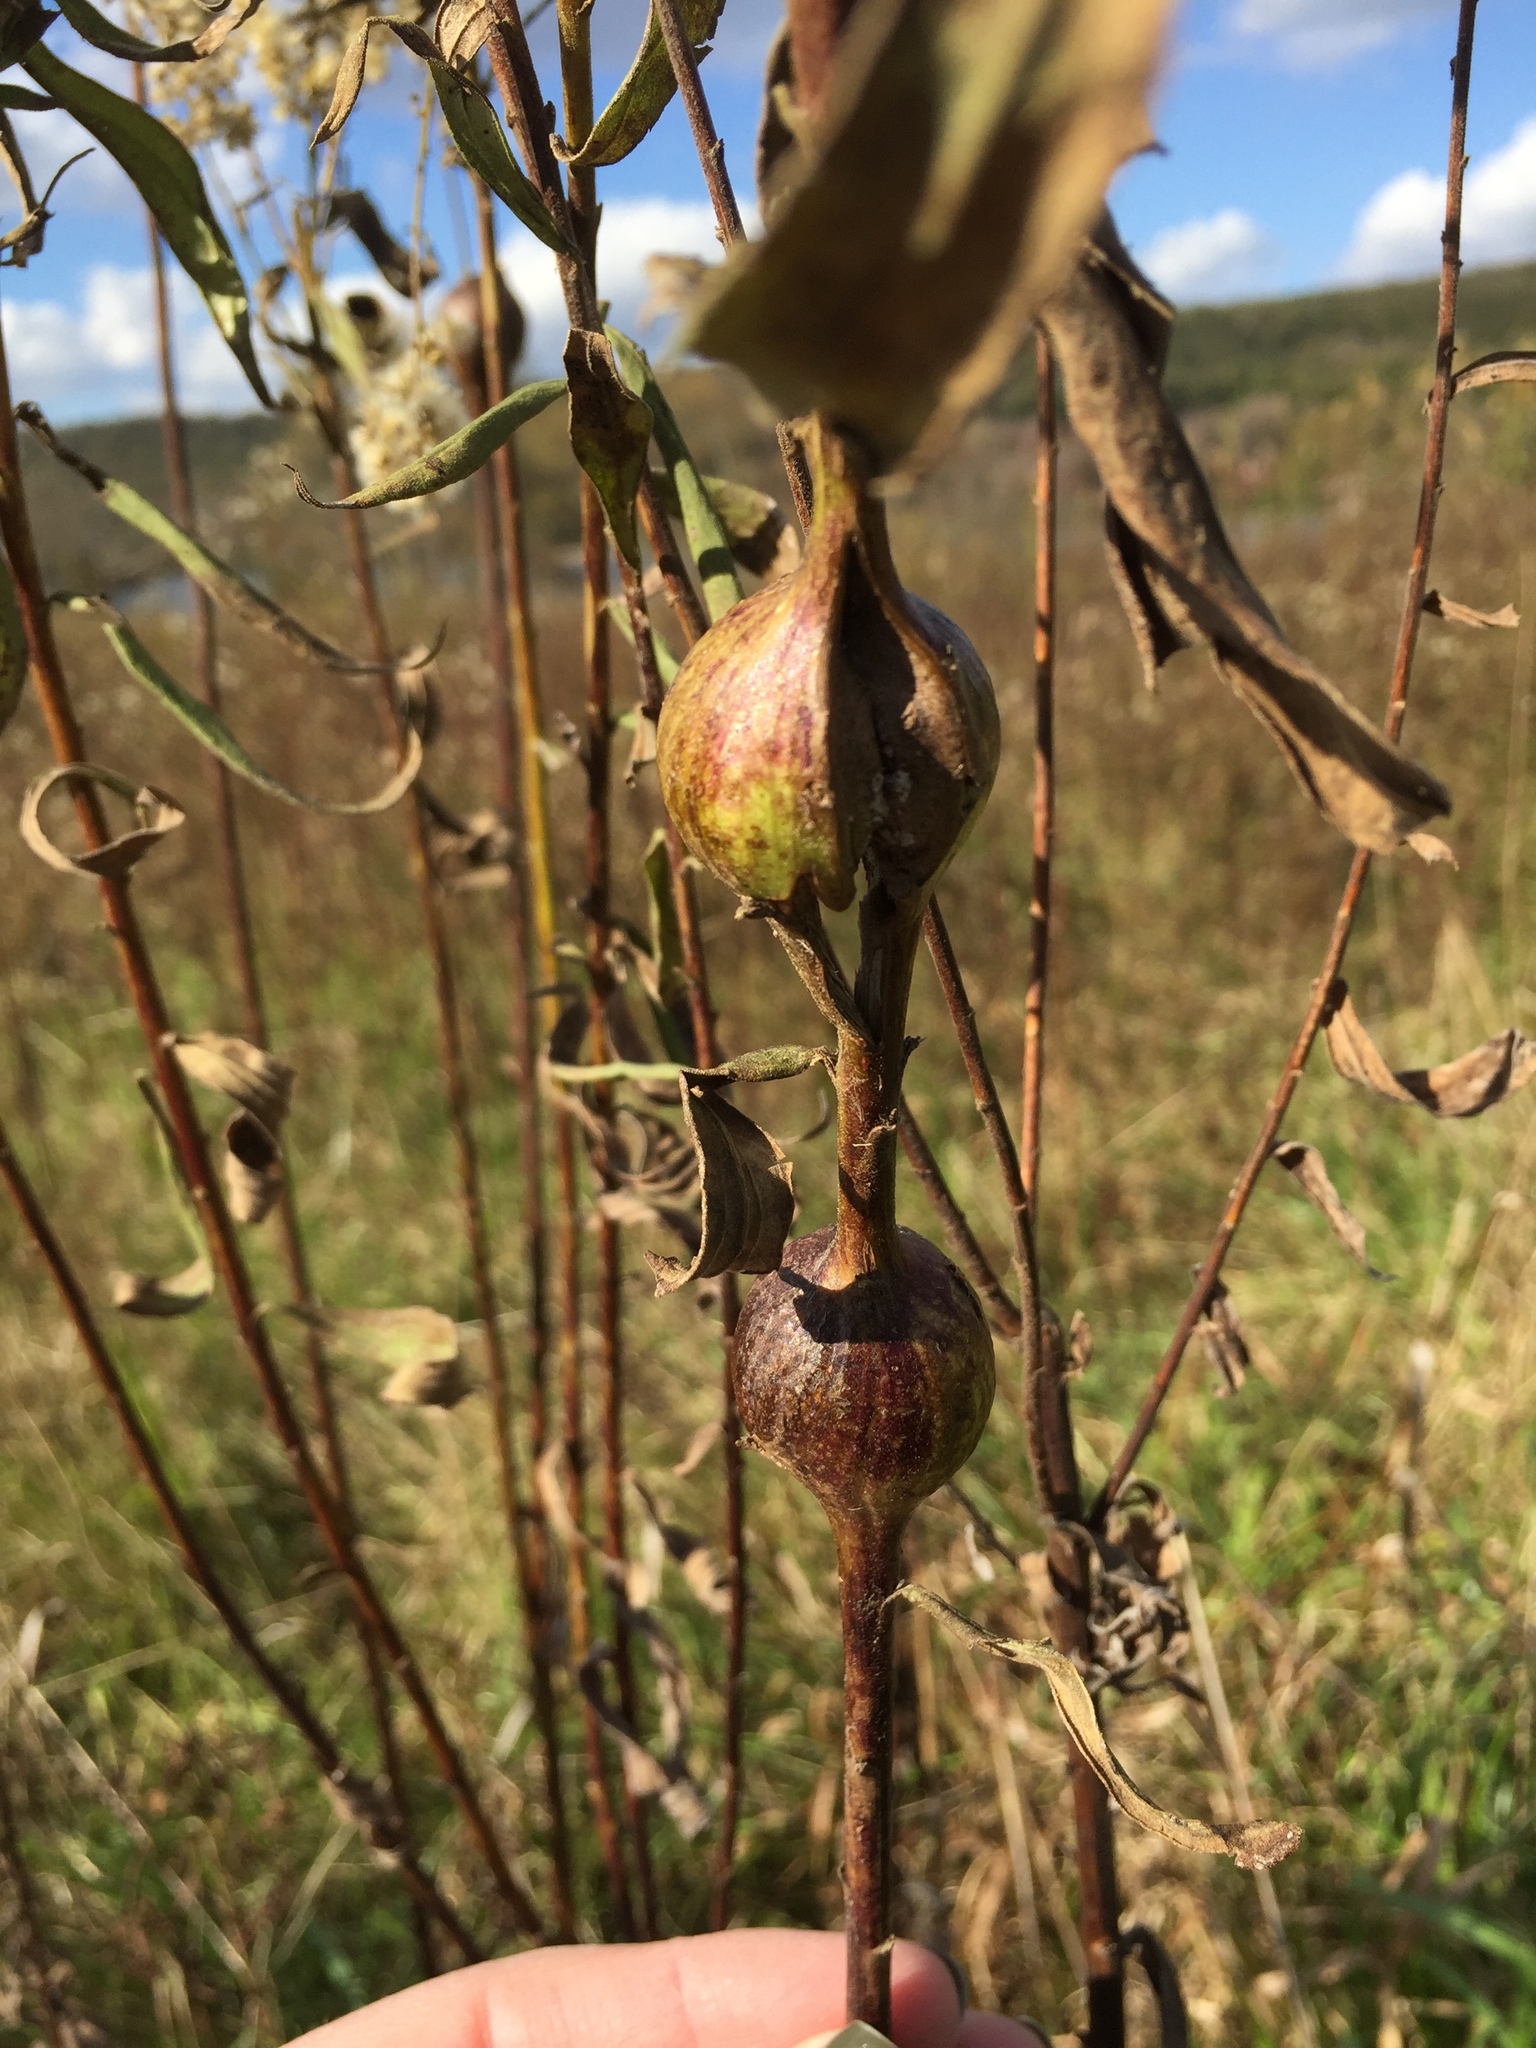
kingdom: Animalia
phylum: Arthropoda
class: Insecta
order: Diptera
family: Tephritidae
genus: Eurosta
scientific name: Eurosta solidaginis
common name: Goldenrod gall fly
